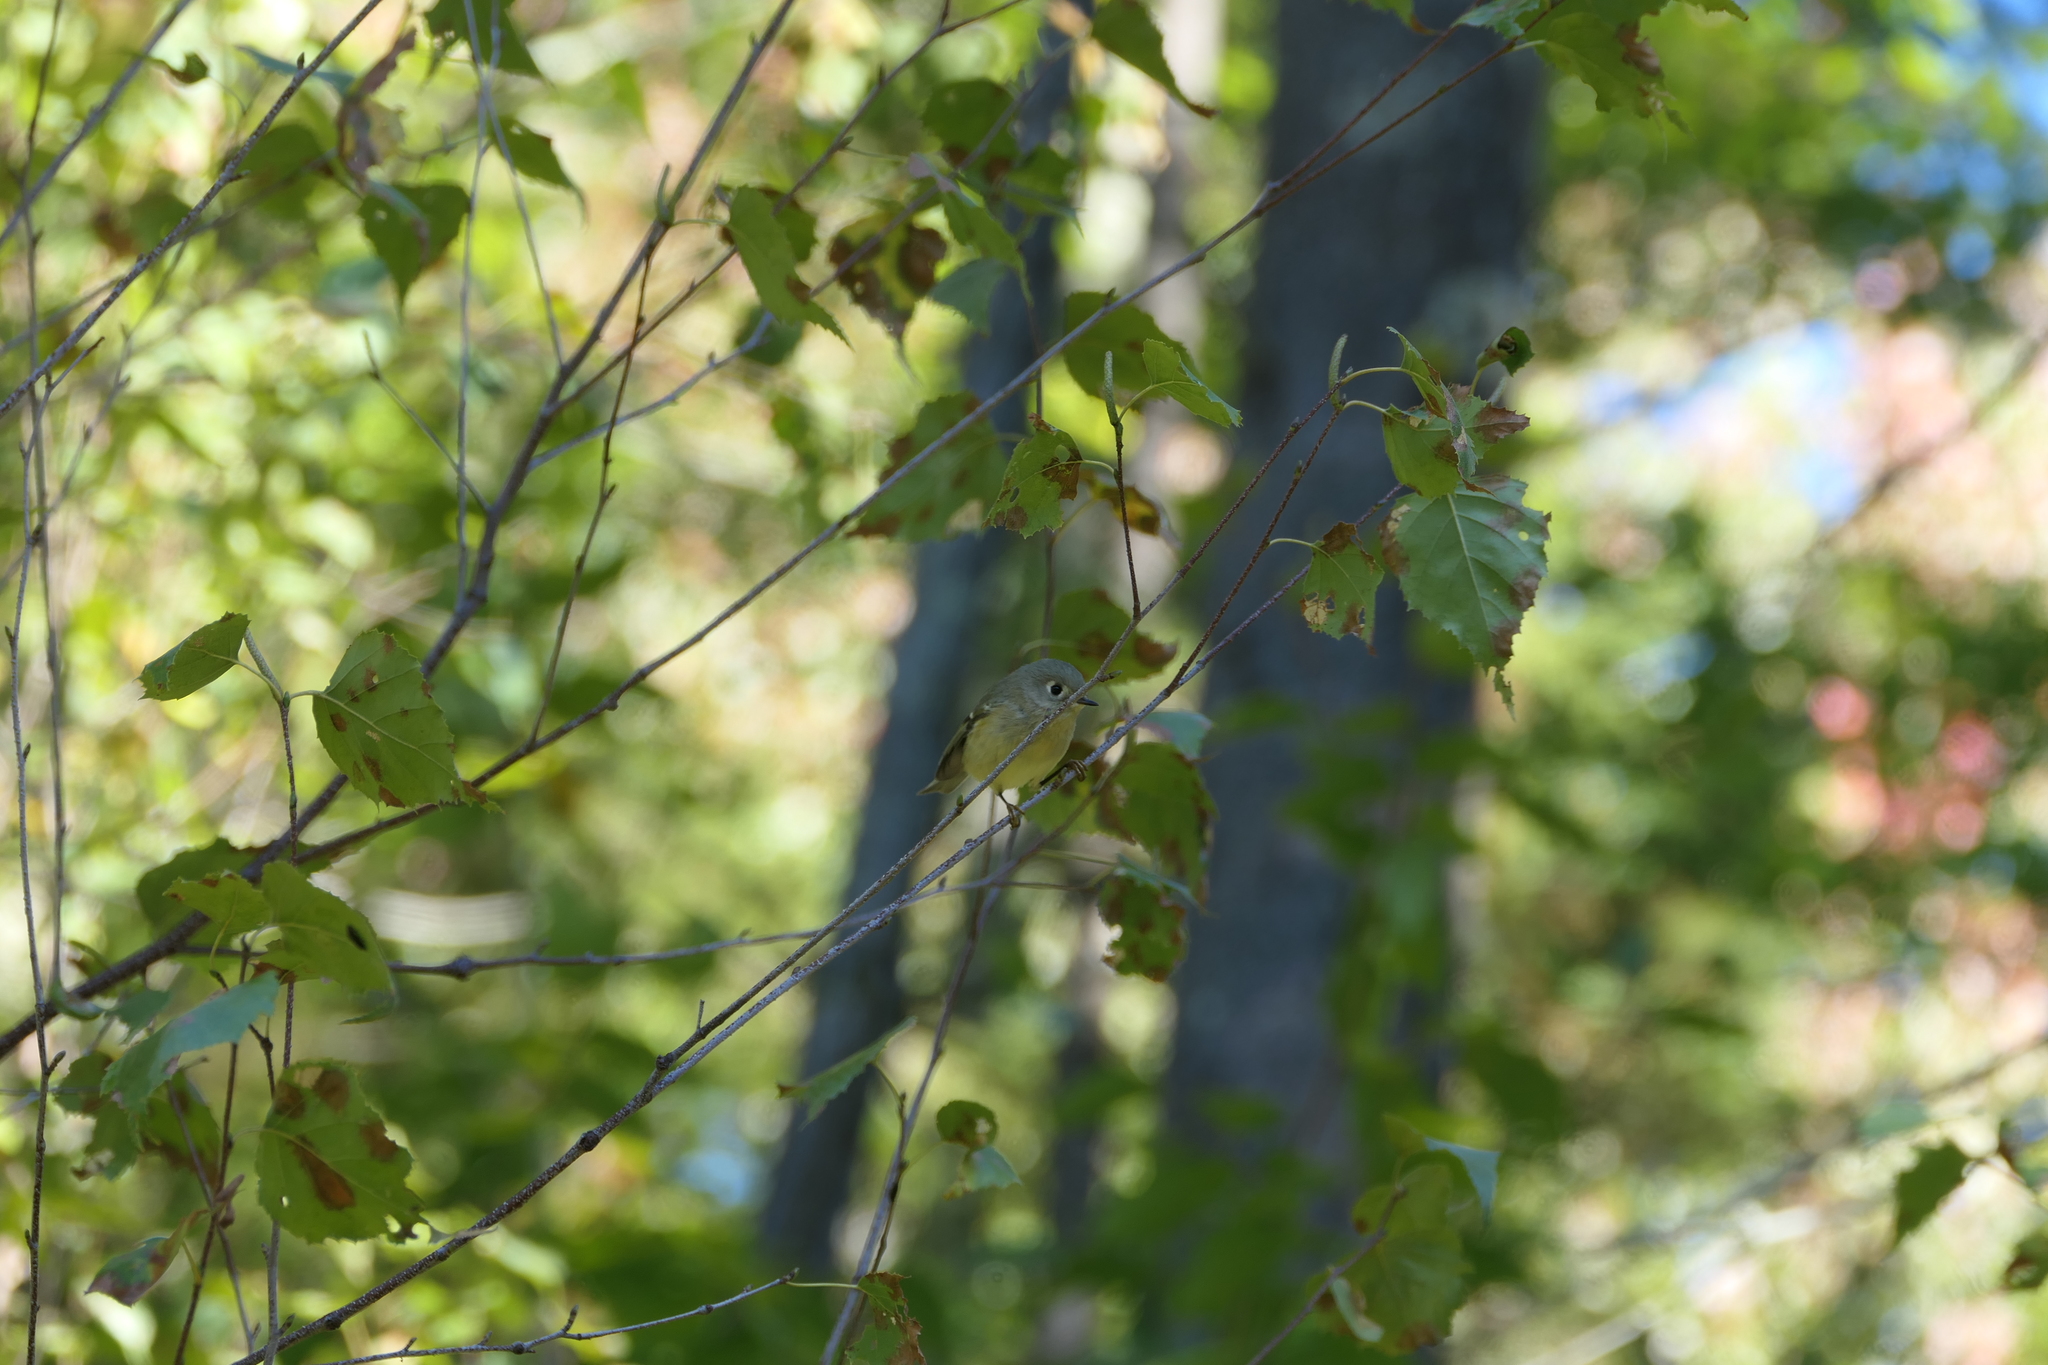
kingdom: Animalia
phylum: Chordata
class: Aves
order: Passeriformes
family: Regulidae
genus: Regulus
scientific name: Regulus calendula
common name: Ruby-crowned kinglet
